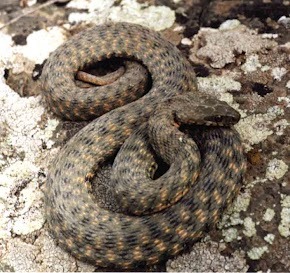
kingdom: Animalia
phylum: Chordata
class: Squamata
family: Colubridae
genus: Natrix
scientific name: Natrix tessellata
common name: Dice snake
